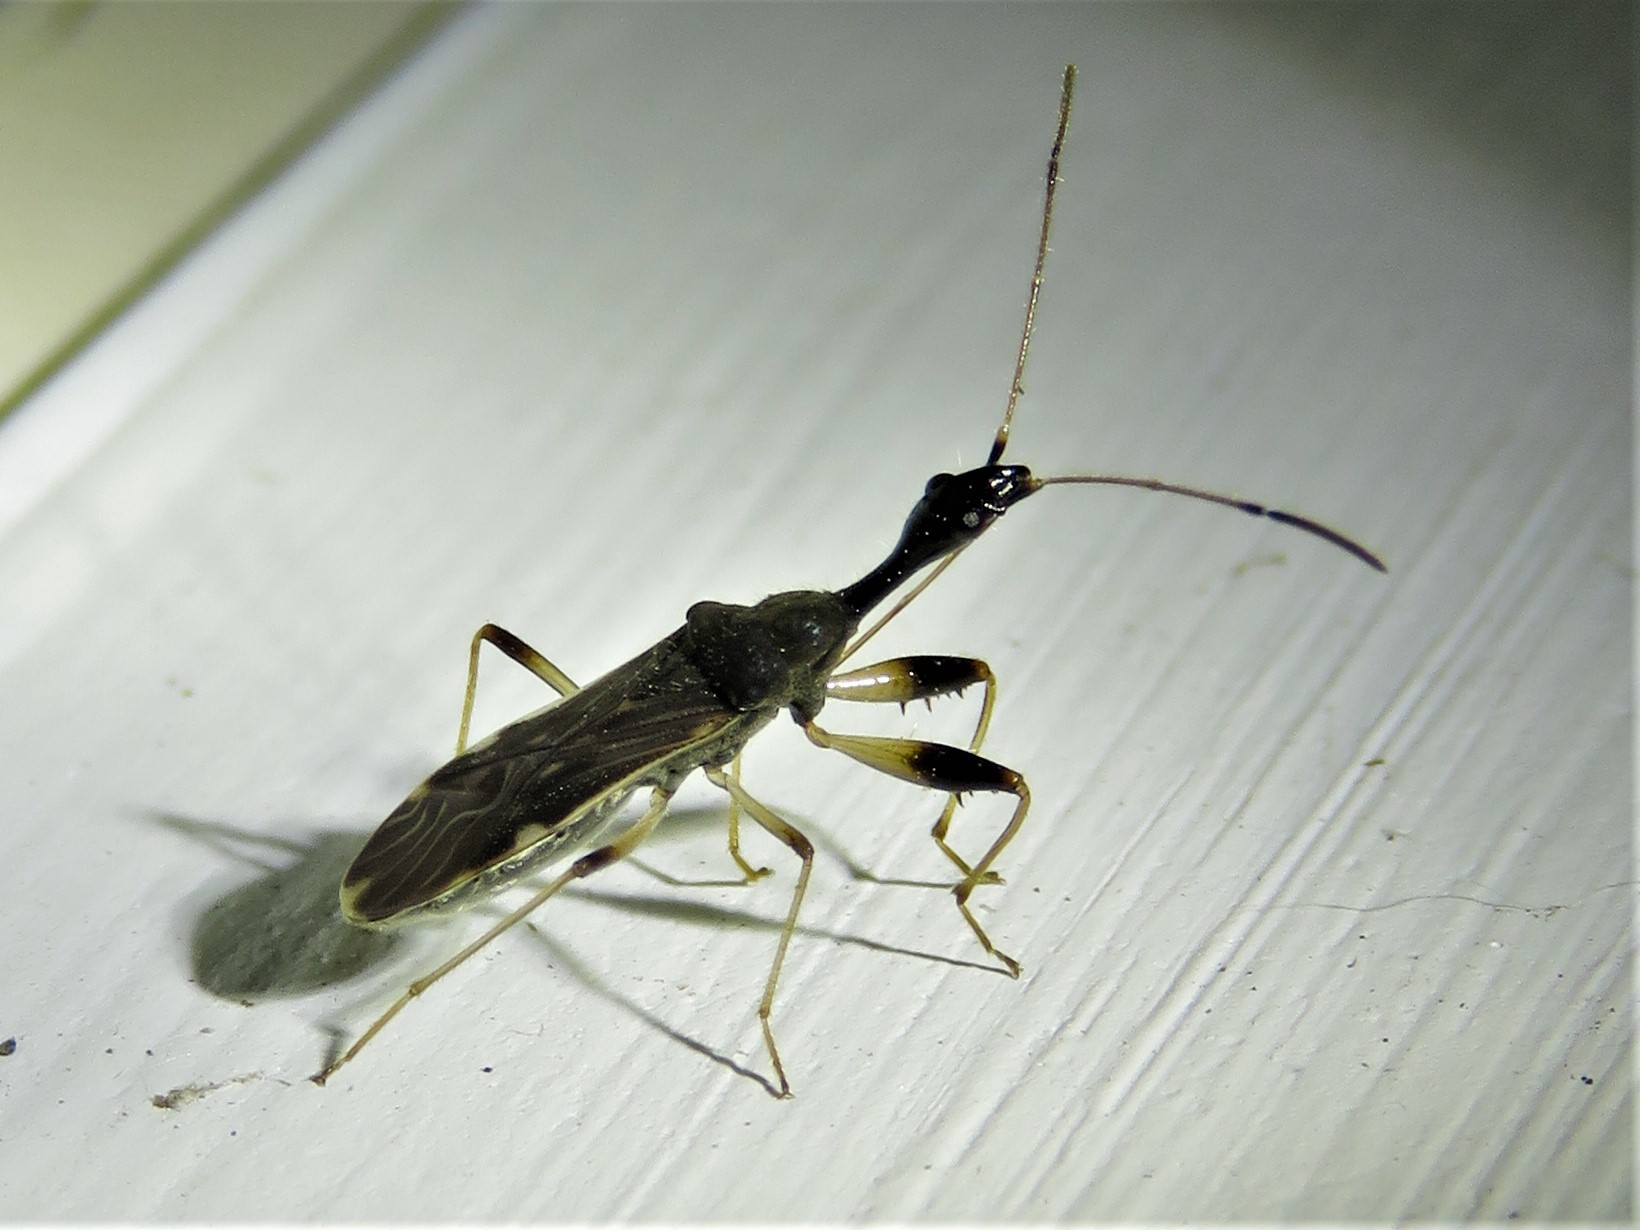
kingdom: Animalia
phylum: Arthropoda
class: Insecta
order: Hemiptera
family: Rhyparochromidae
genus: Myodocha
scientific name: Myodocha serripes
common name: Long-necked seed bug
